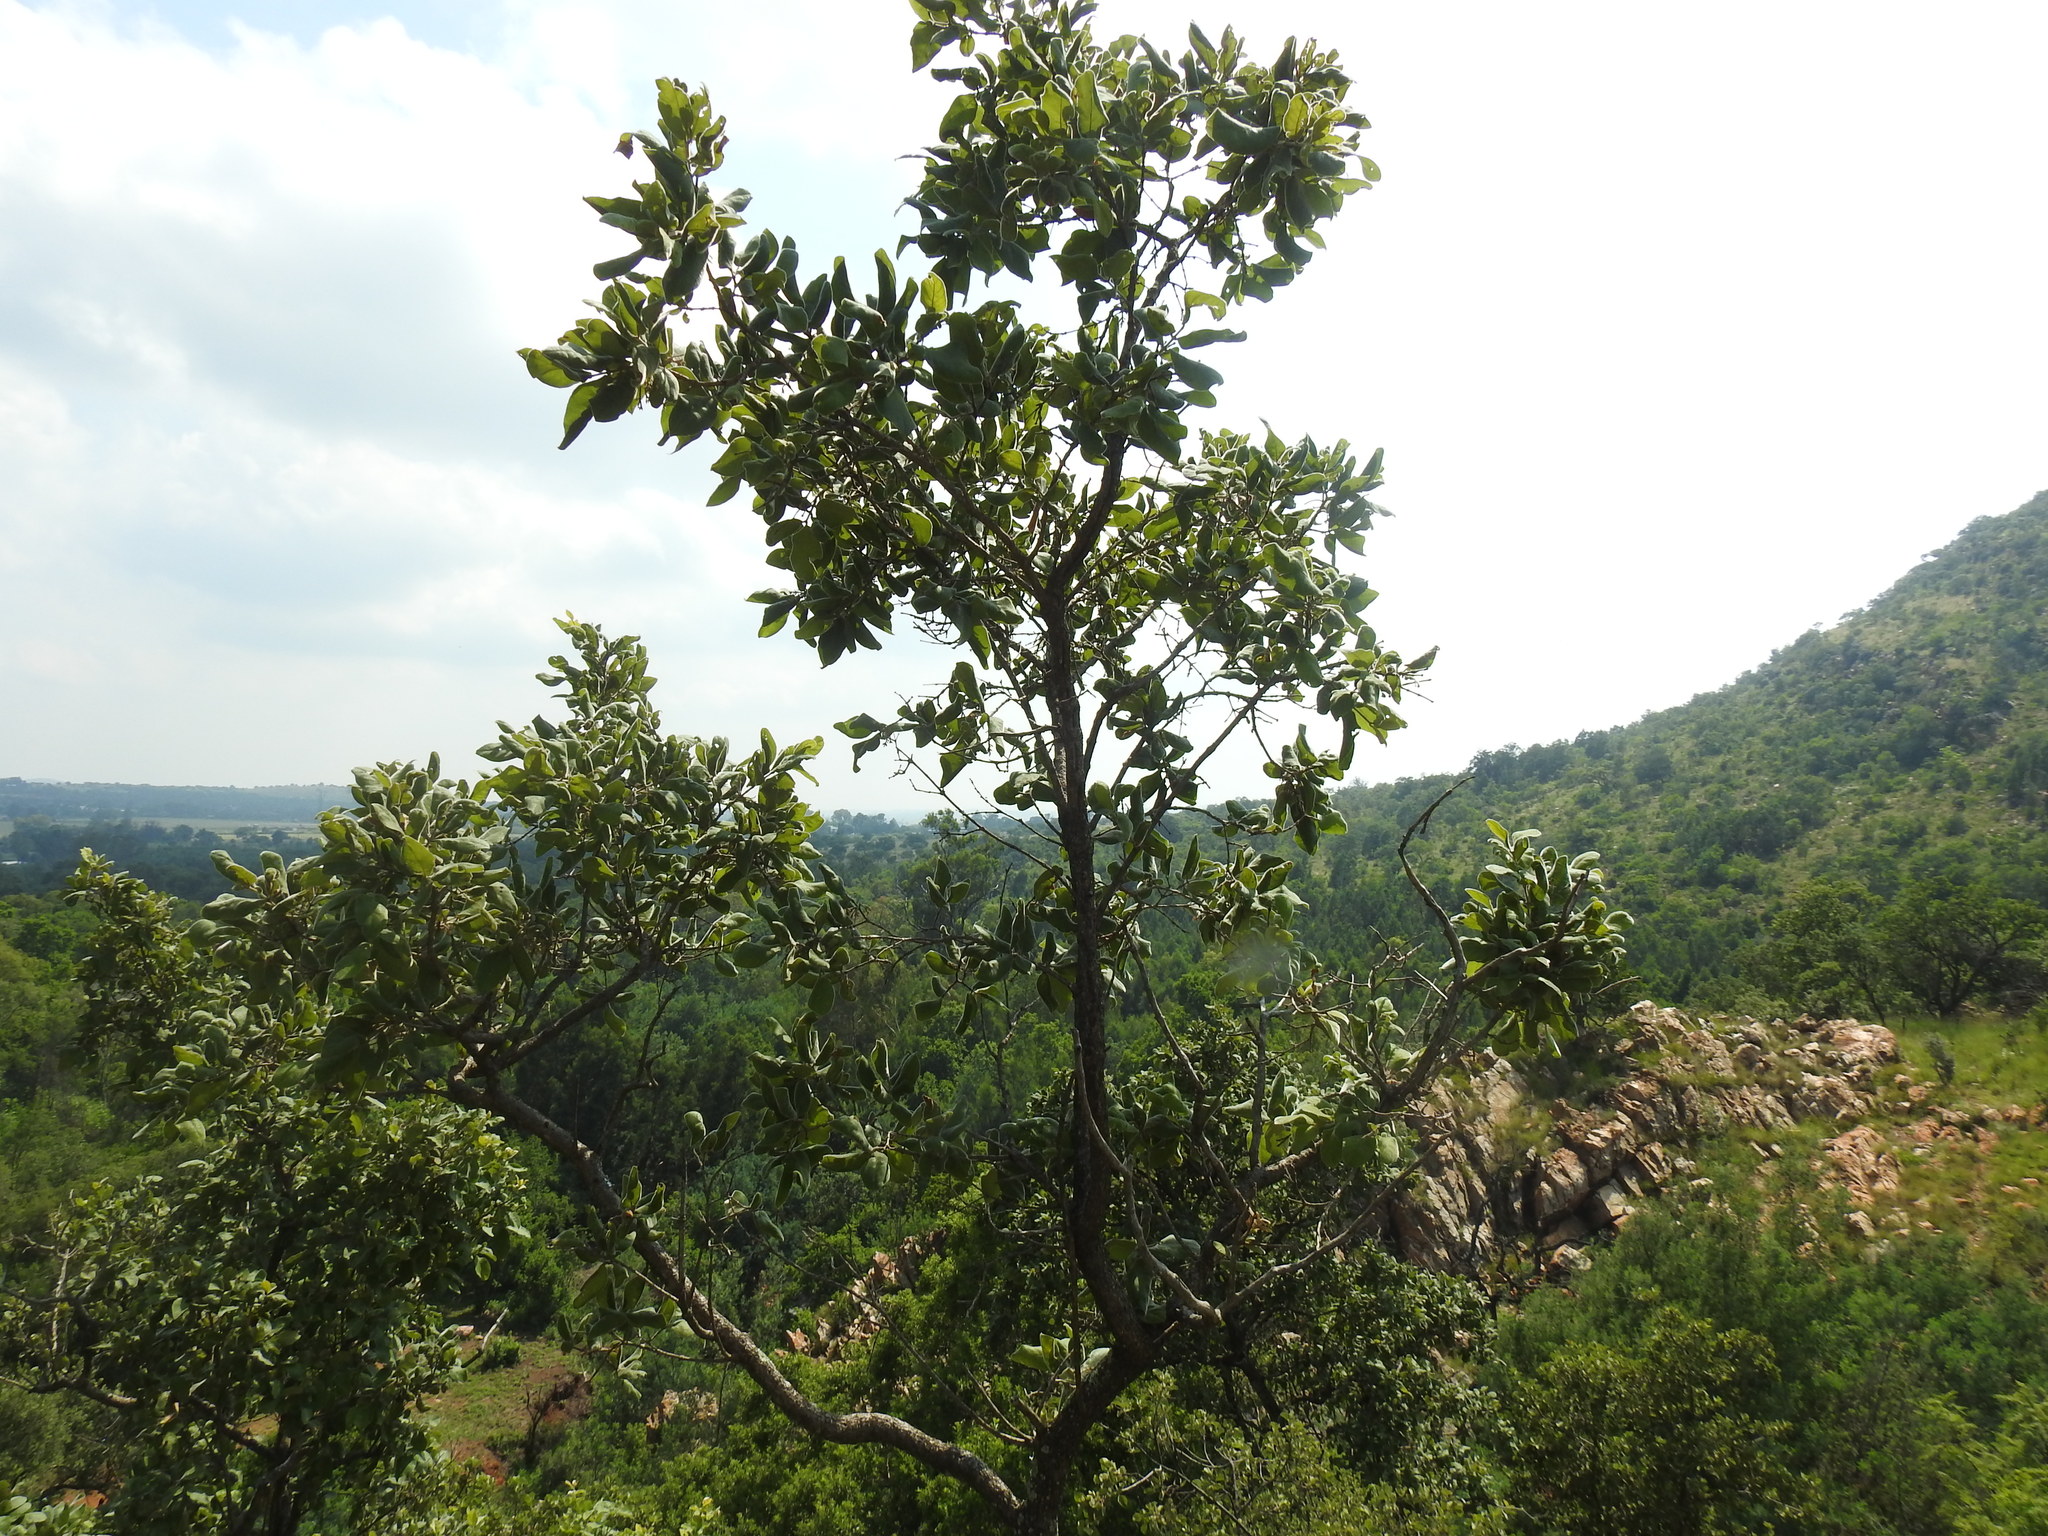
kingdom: Plantae
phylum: Tracheophyta
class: Magnoliopsida
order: Myrtales
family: Combretaceae
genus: Combretum
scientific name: Combretum molle
